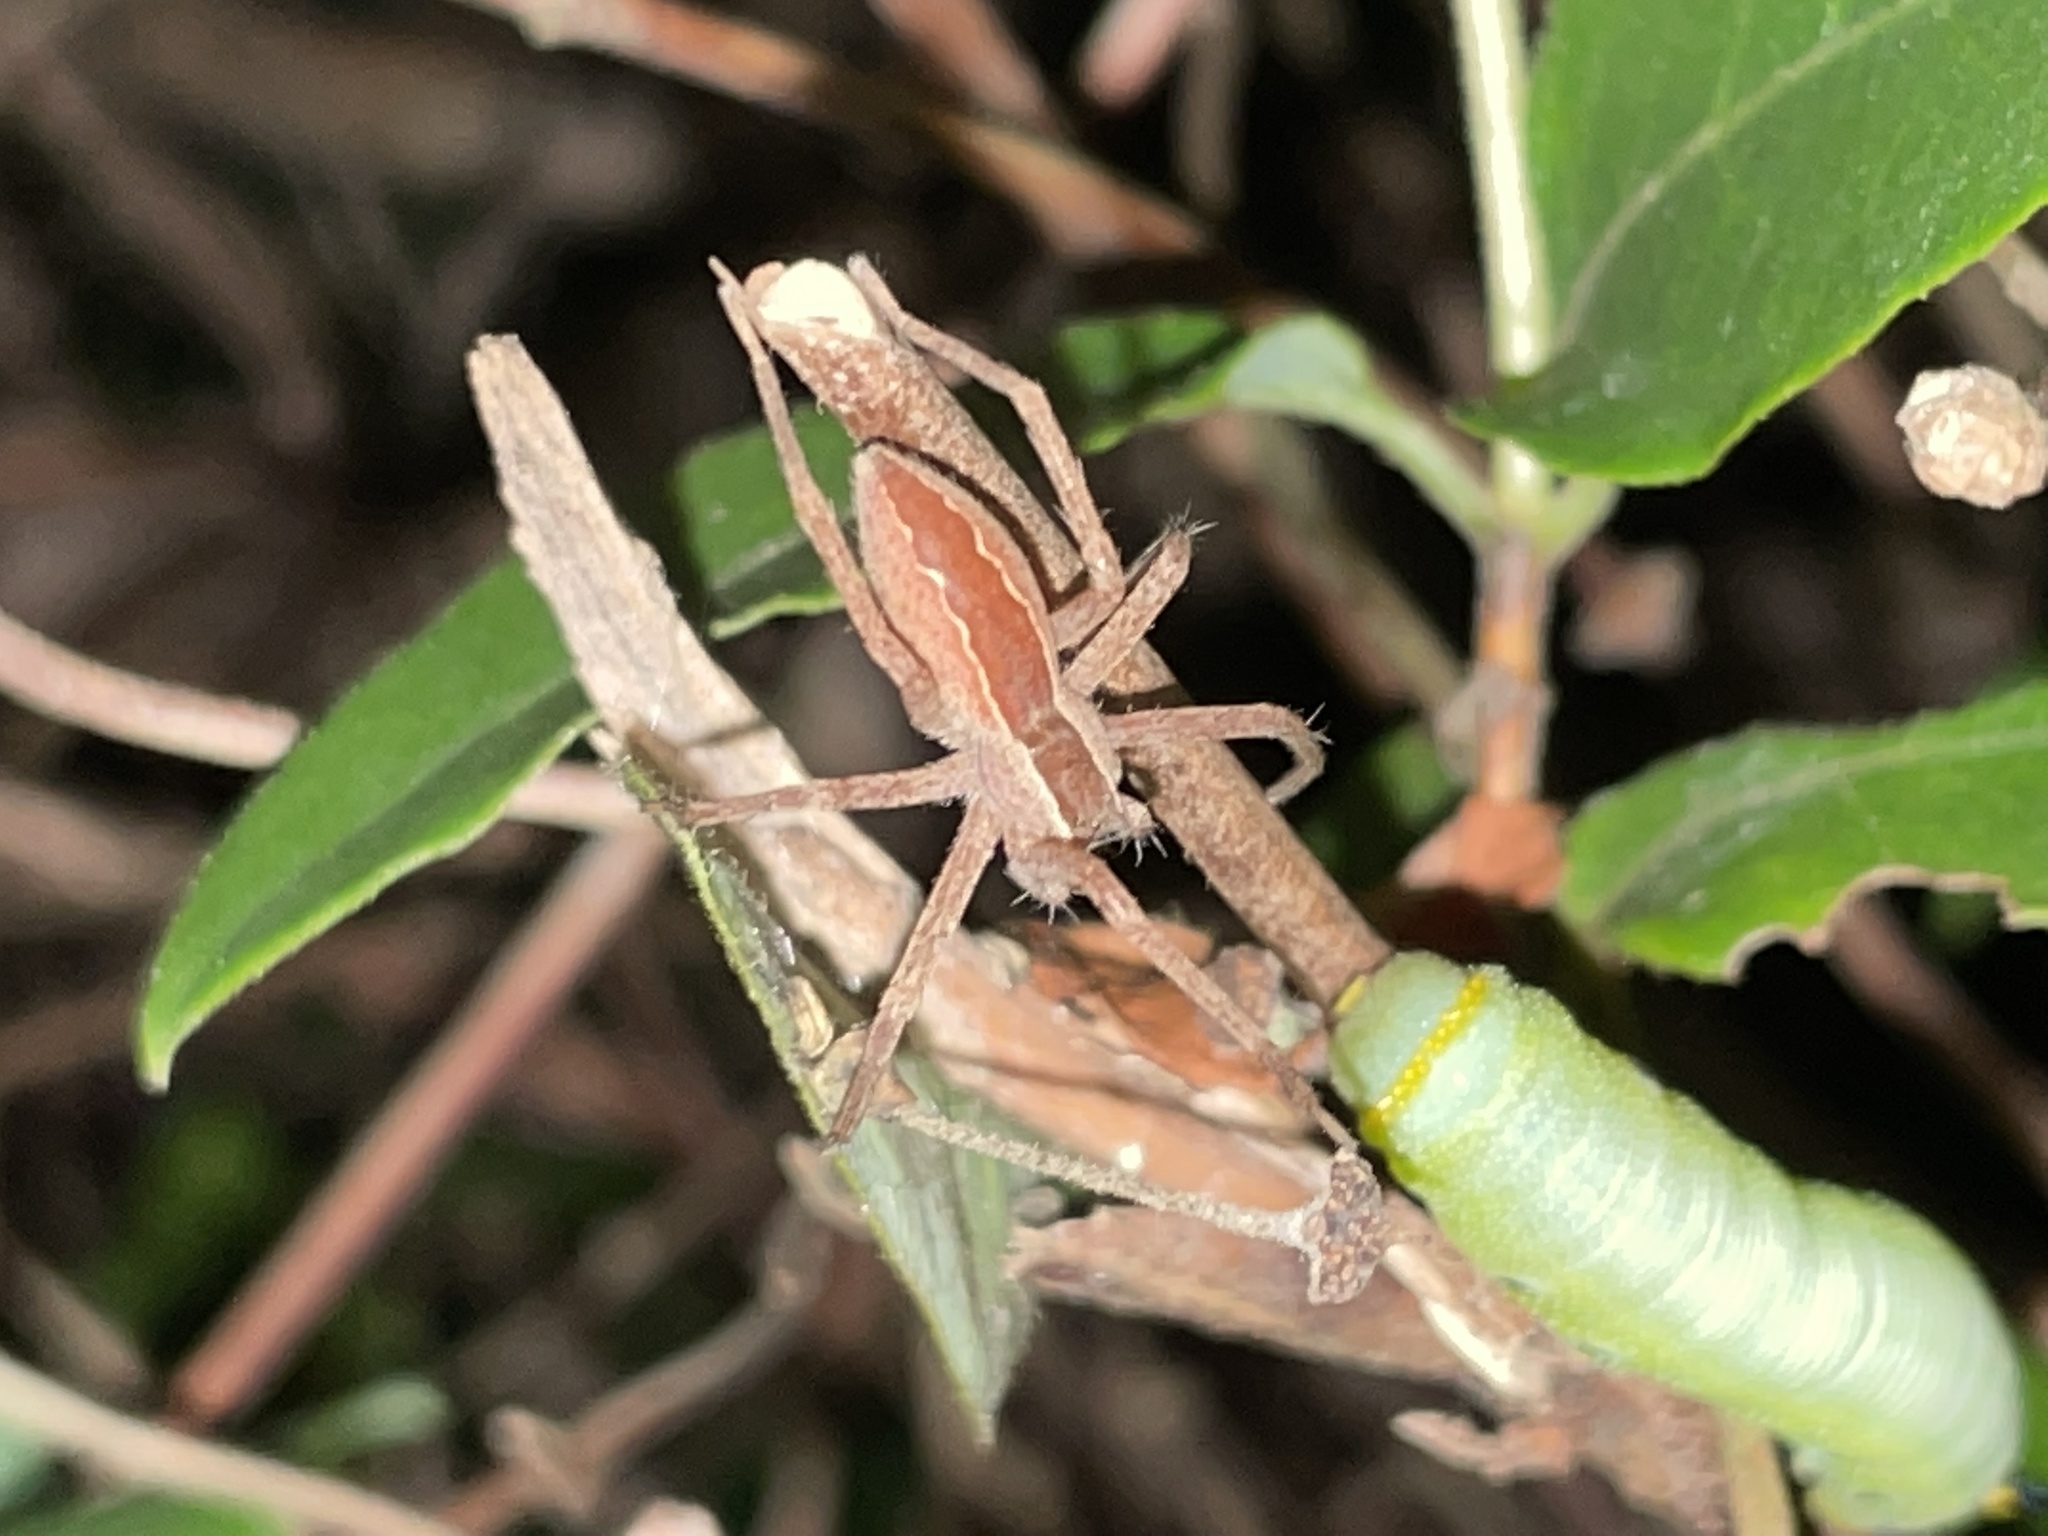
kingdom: Animalia
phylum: Arthropoda
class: Arachnida
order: Araneae
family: Pisauridae
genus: Pisaurina
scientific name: Pisaurina mira
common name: American nursery web spider
